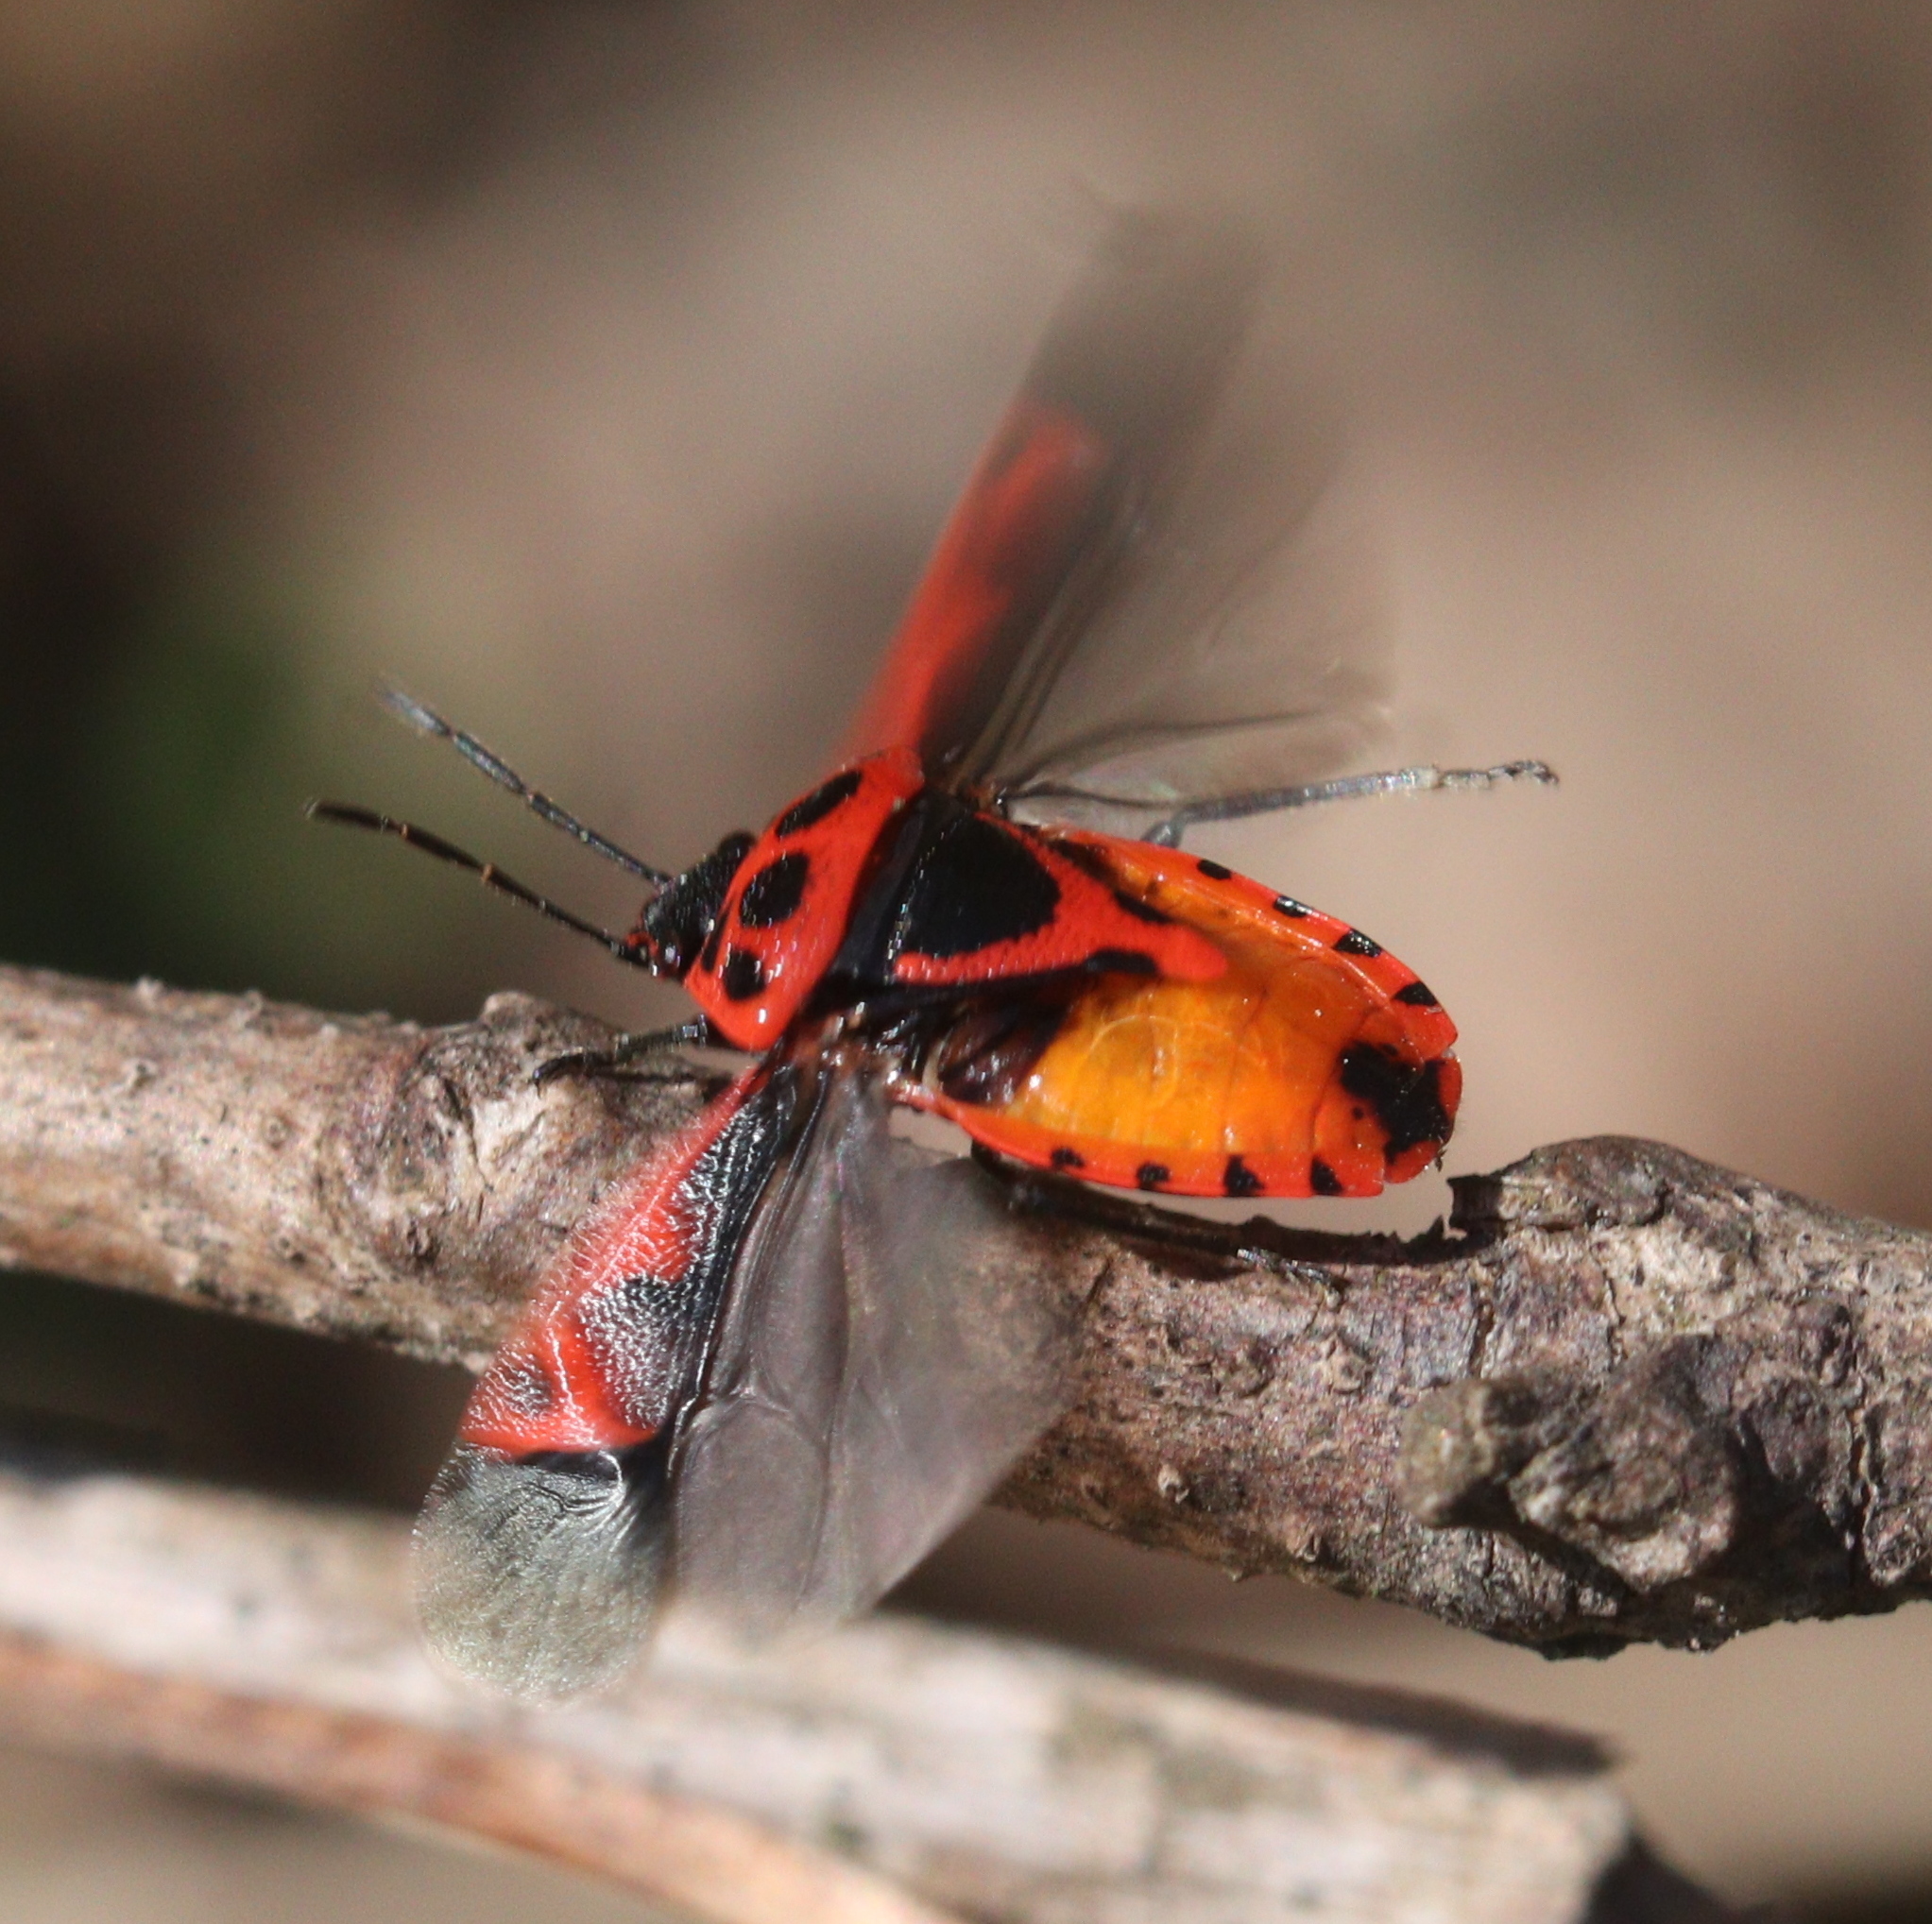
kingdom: Animalia
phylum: Arthropoda
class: Insecta
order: Hemiptera
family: Pentatomidae
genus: Eurydema
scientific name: Eurydema dominulus
